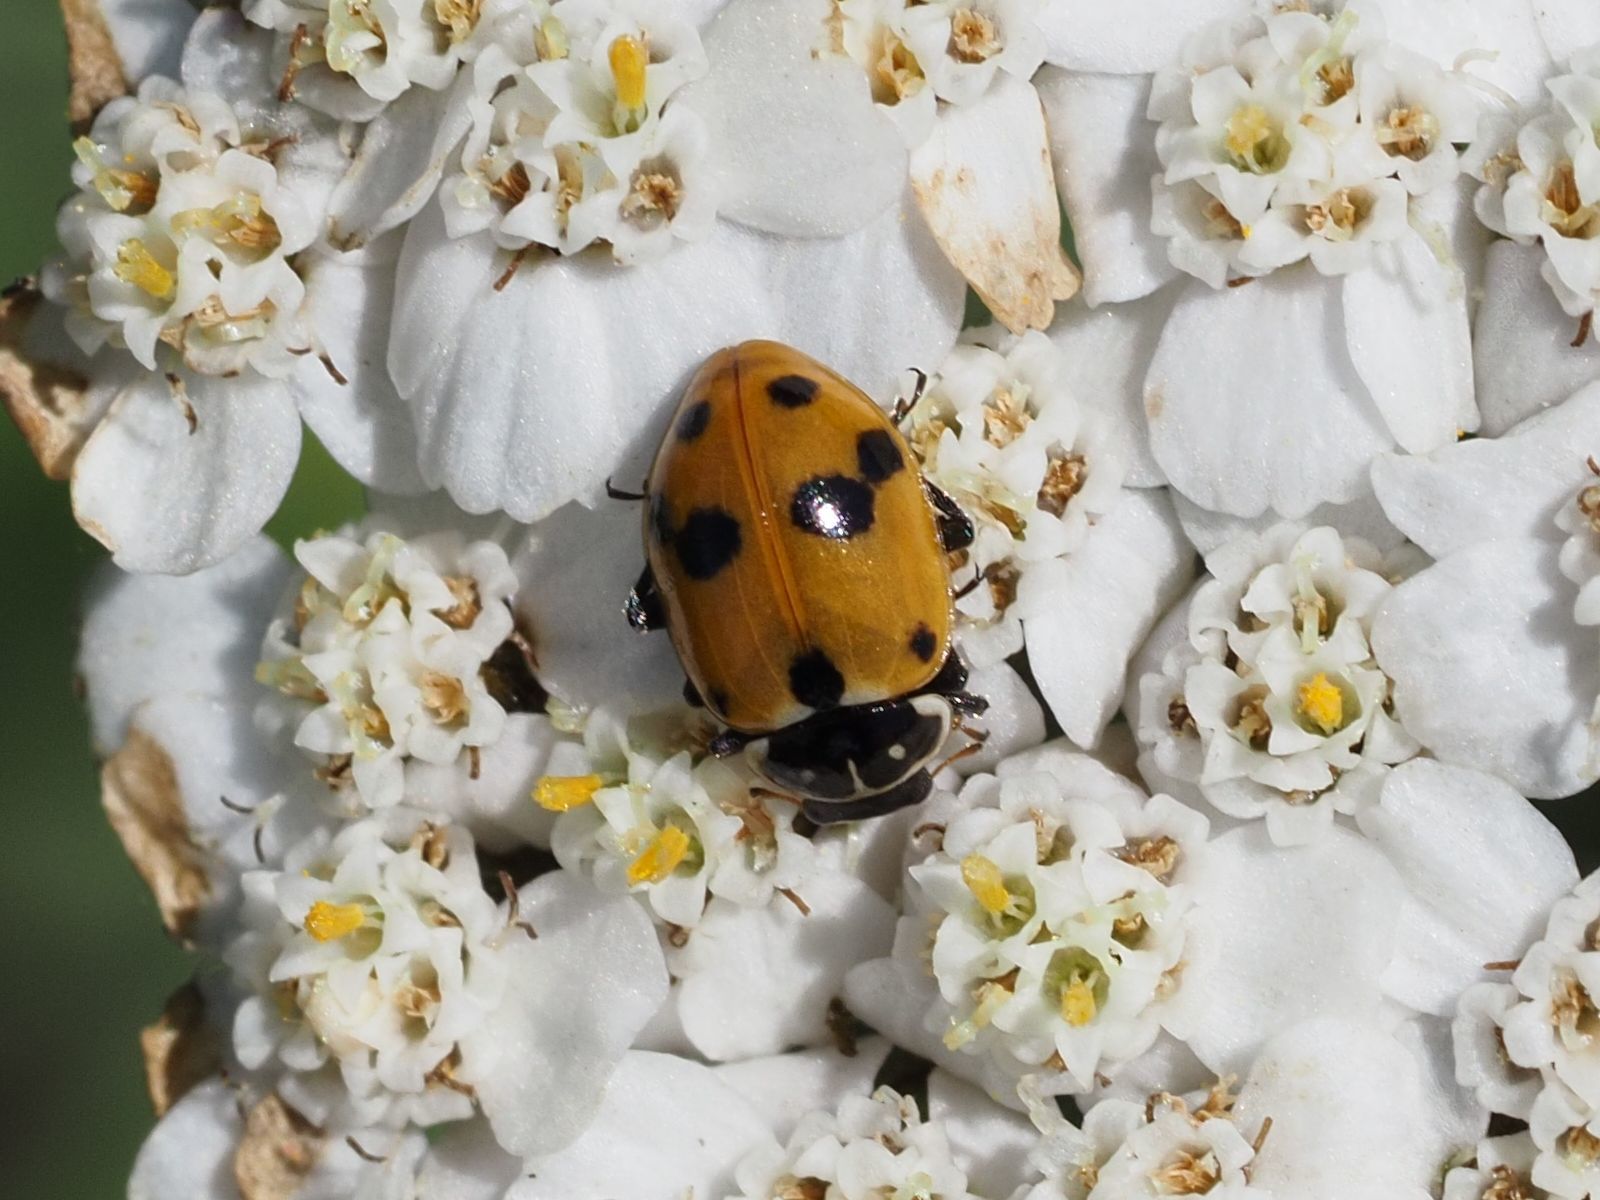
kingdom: Animalia
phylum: Arthropoda
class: Insecta
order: Coleoptera
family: Coccinellidae
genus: Hippodamia
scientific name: Hippodamia variegata
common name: Ladybird beetle
